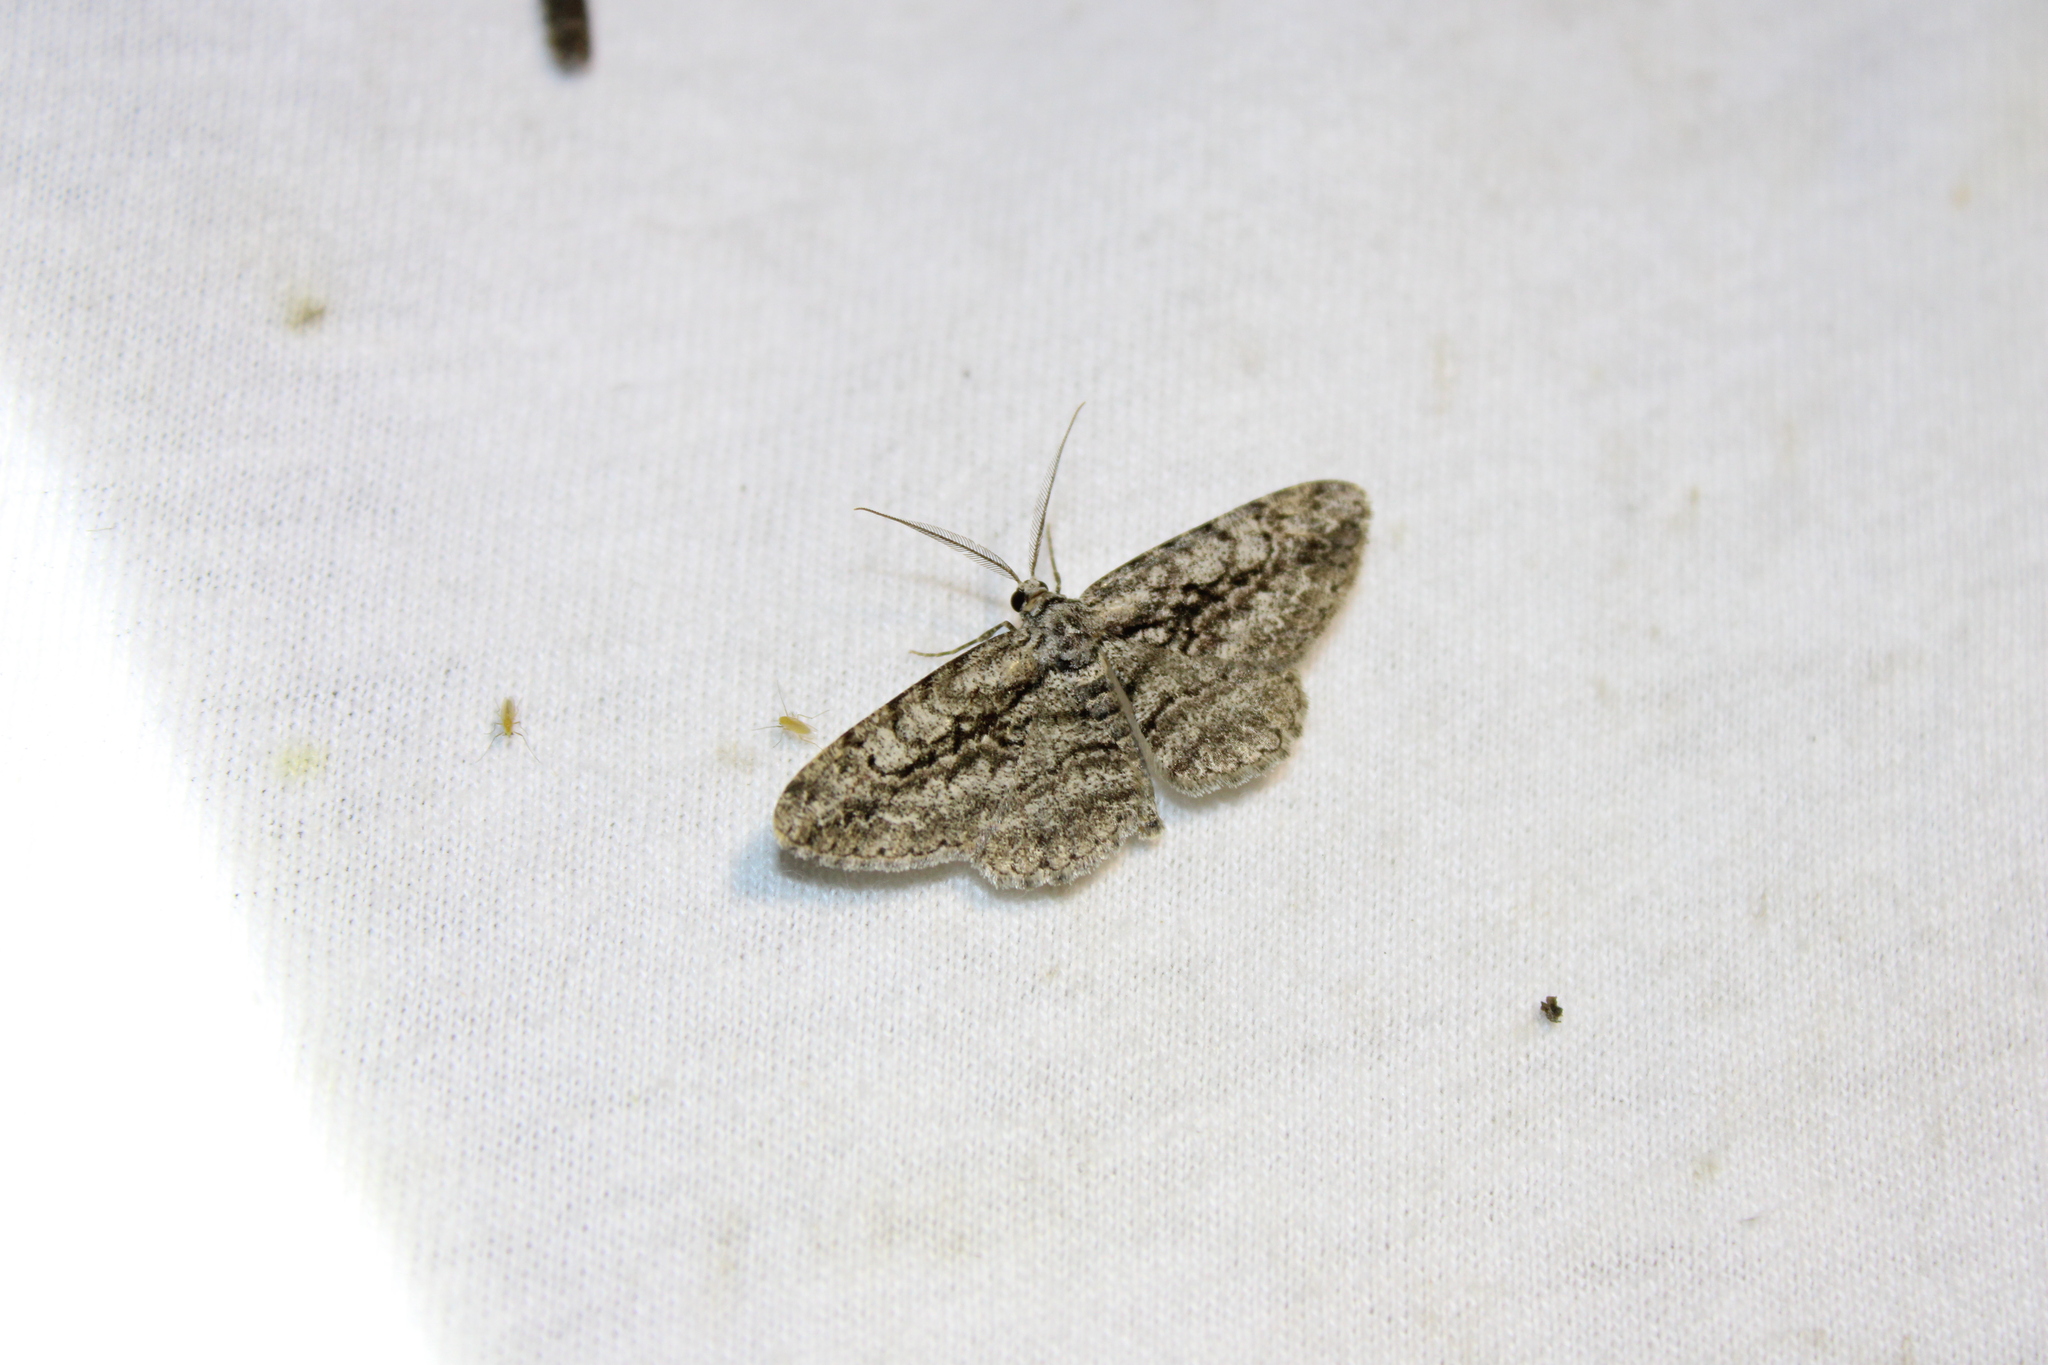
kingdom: Animalia
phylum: Arthropoda
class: Insecta
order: Lepidoptera
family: Geometridae
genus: Anavitrinella
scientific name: Anavitrinella pampinaria
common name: Common gray
